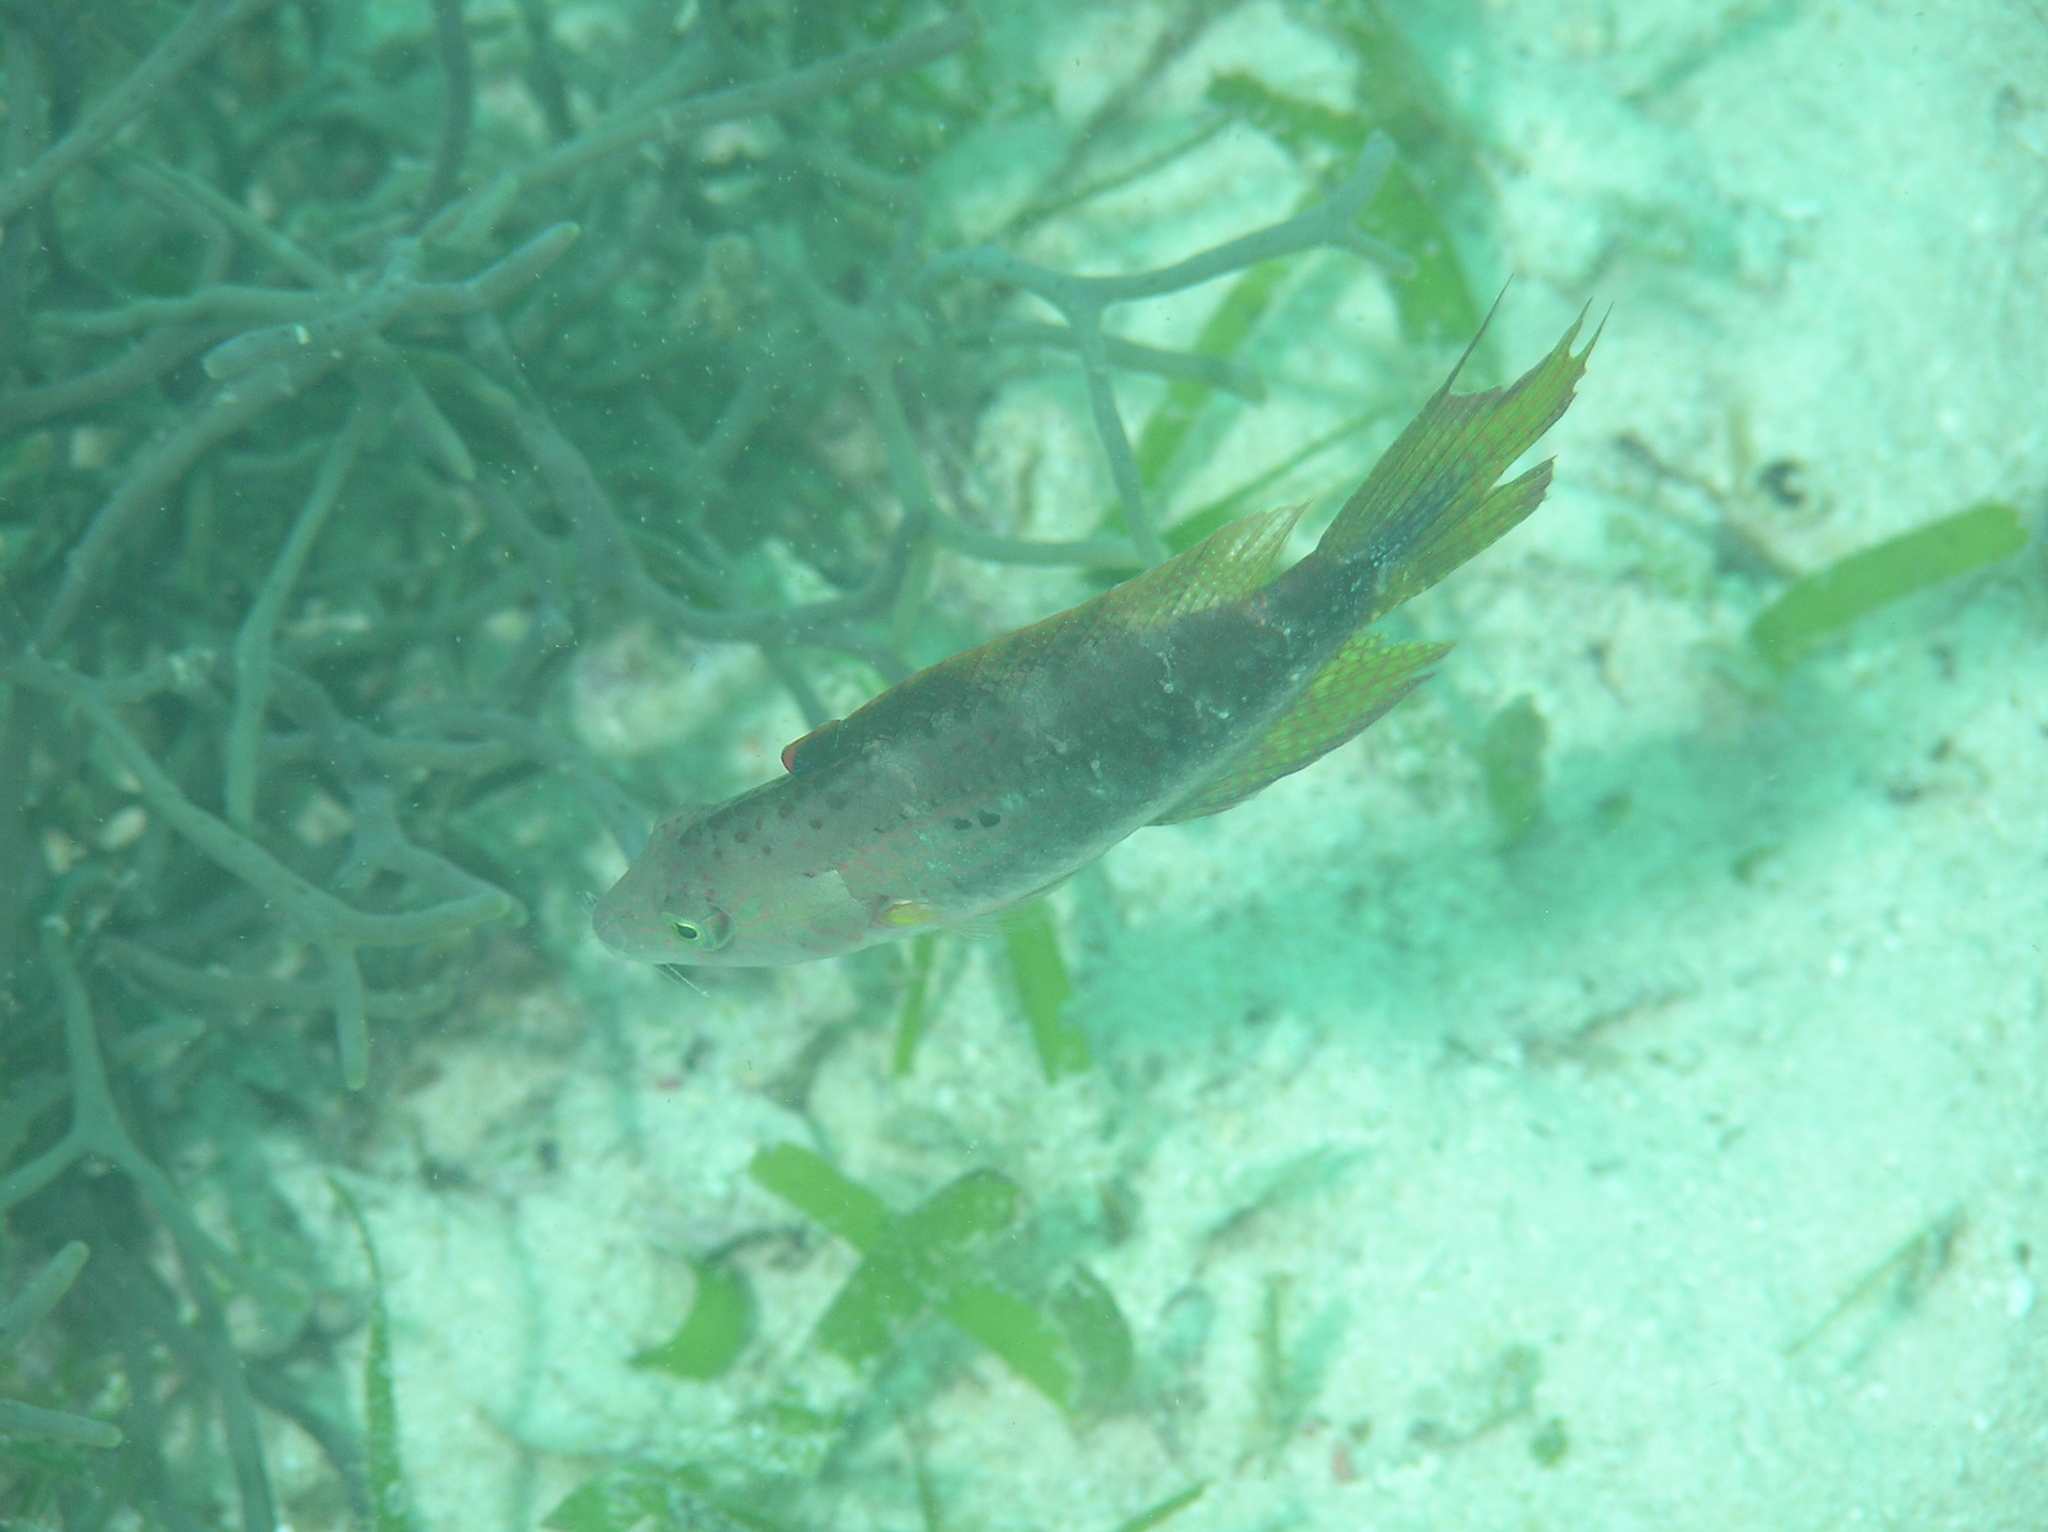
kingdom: Animalia
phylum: Chordata
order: Perciformes
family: Labridae
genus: Oxycheilinus
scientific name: Oxycheilinus bimaculatus
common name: Comettailed wrasse
